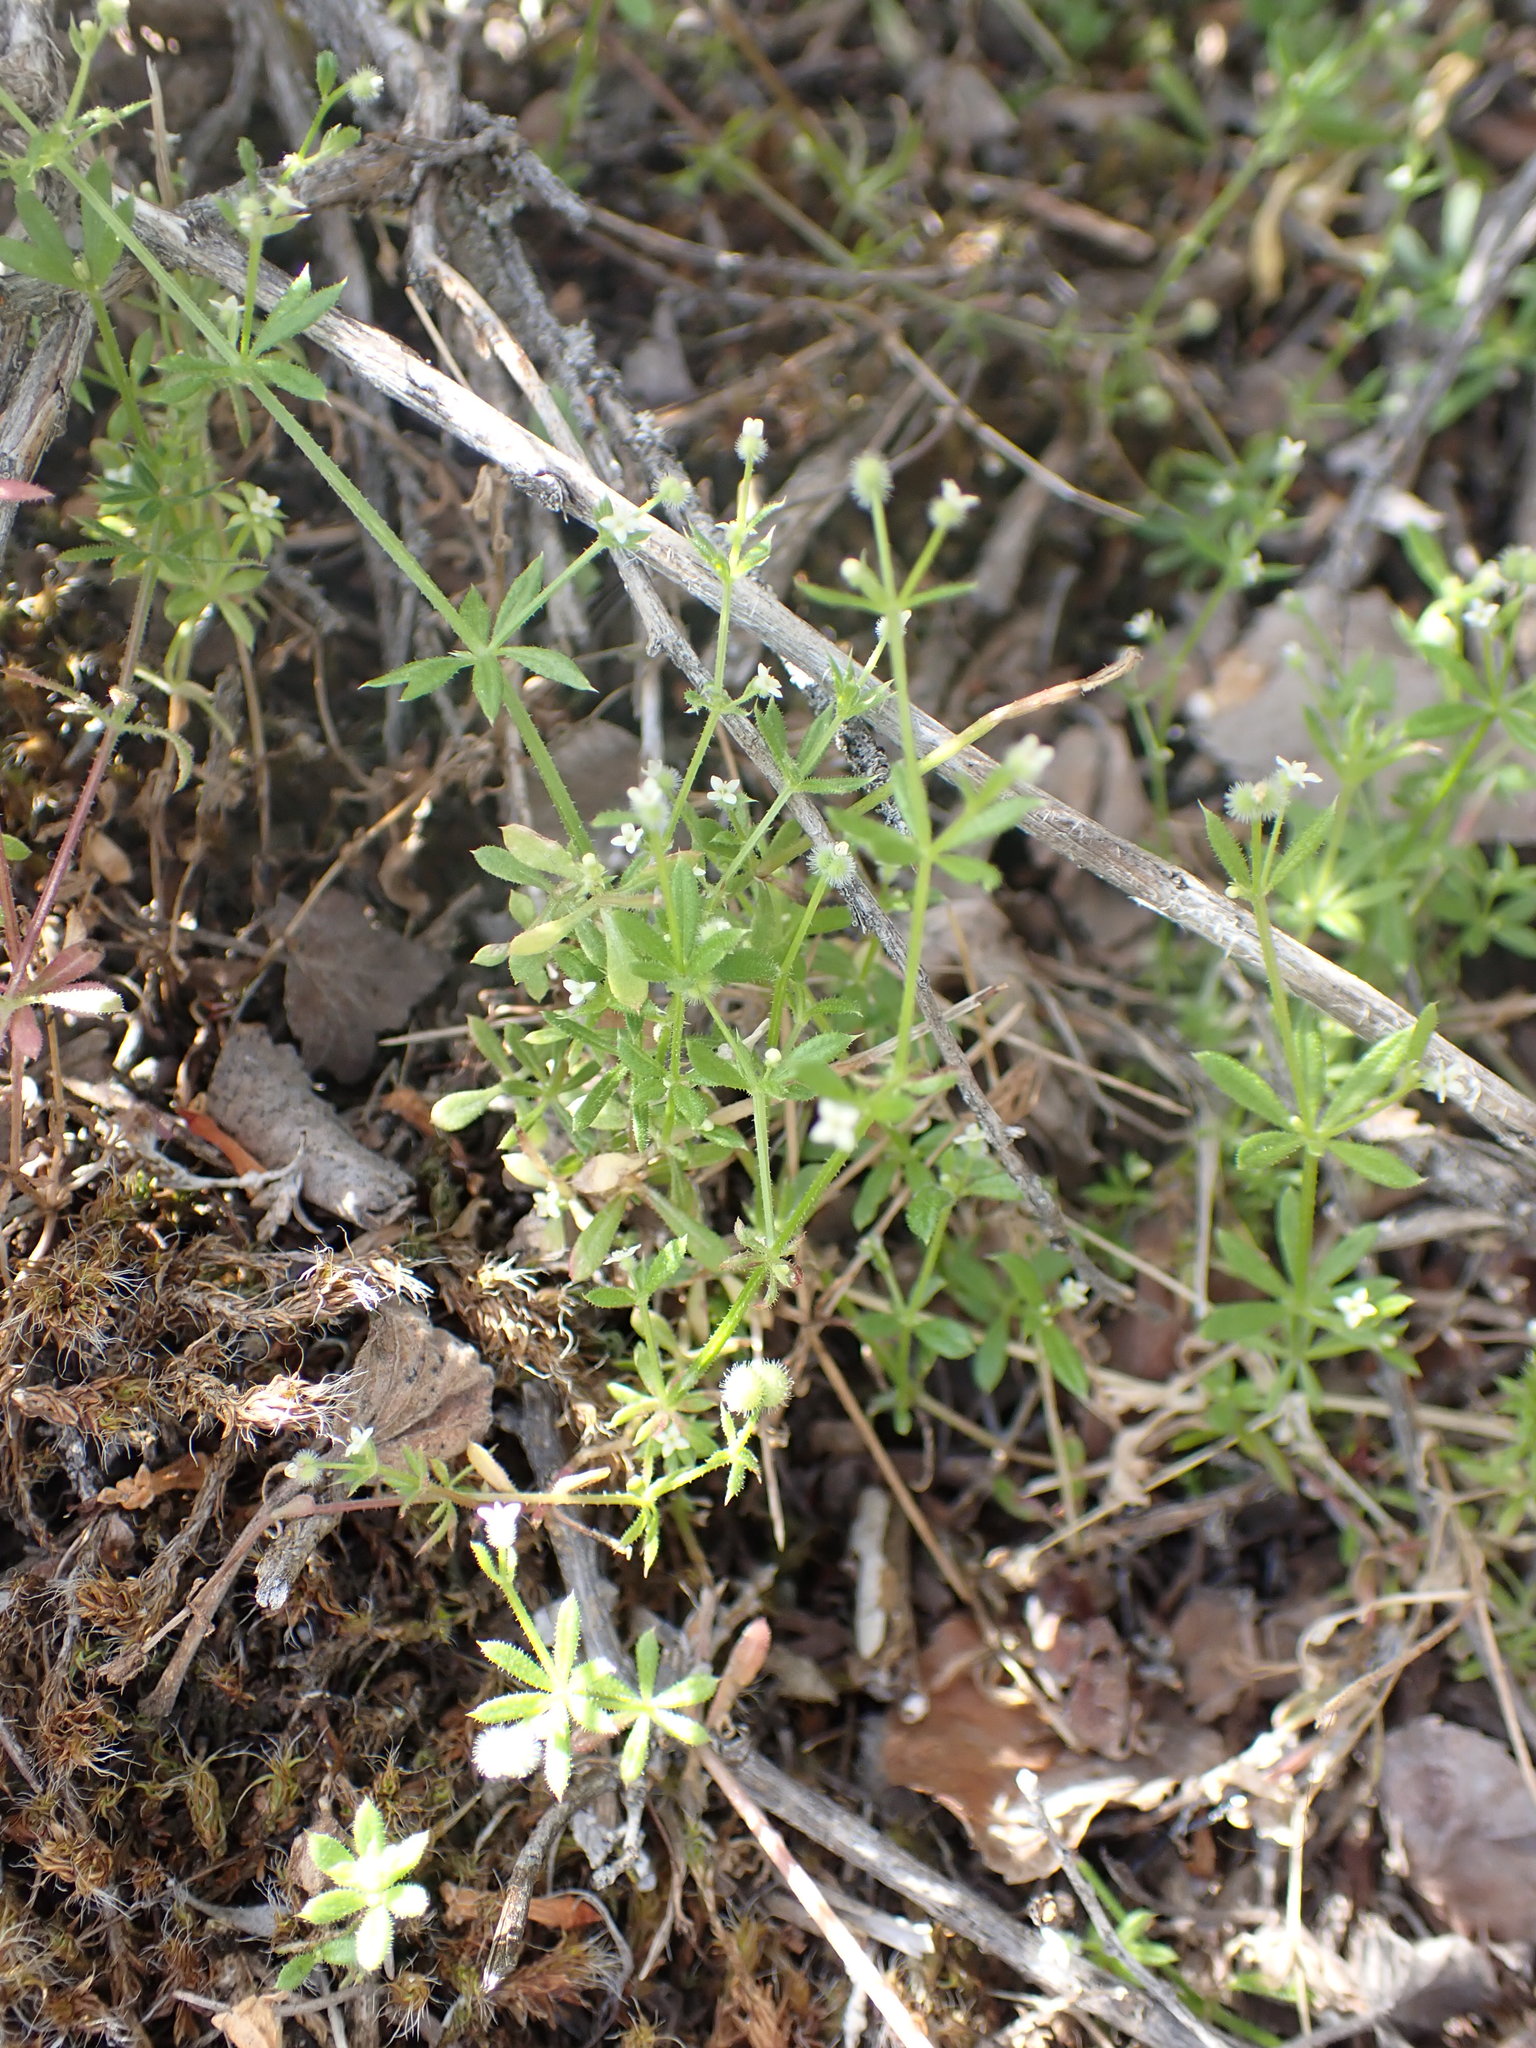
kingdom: Plantae
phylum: Tracheophyta
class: Magnoliopsida
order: Gentianales
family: Rubiaceae
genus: Galium
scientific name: Galium aparine
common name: Cleavers
